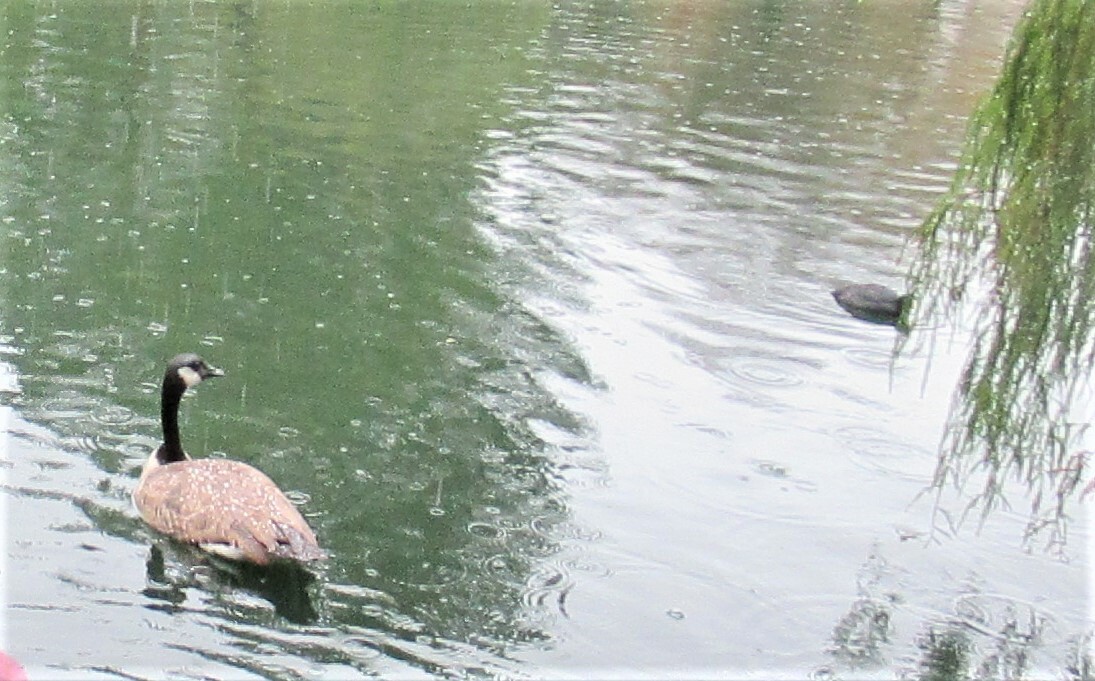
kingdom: Animalia
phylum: Chordata
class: Aves
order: Anseriformes
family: Anatidae
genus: Branta
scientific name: Branta canadensis
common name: Canada goose
